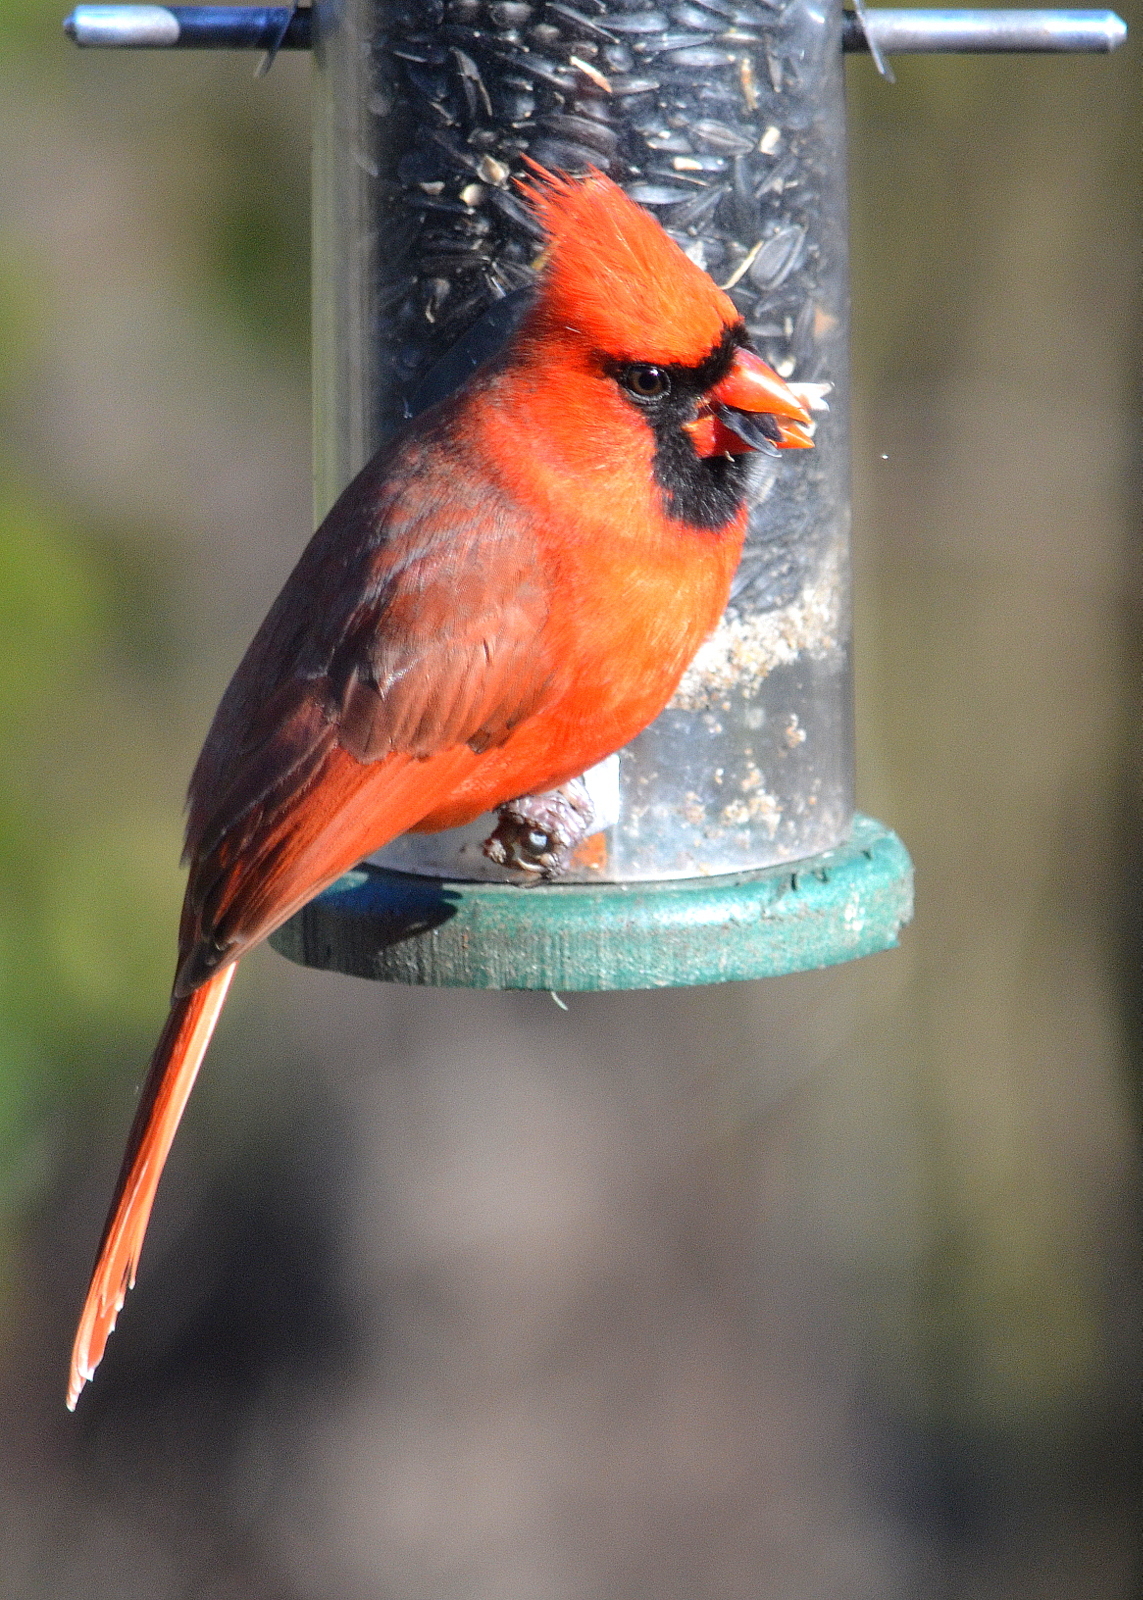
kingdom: Animalia
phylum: Chordata
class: Aves
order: Passeriformes
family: Cardinalidae
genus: Cardinalis
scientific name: Cardinalis cardinalis
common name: Northern cardinal
